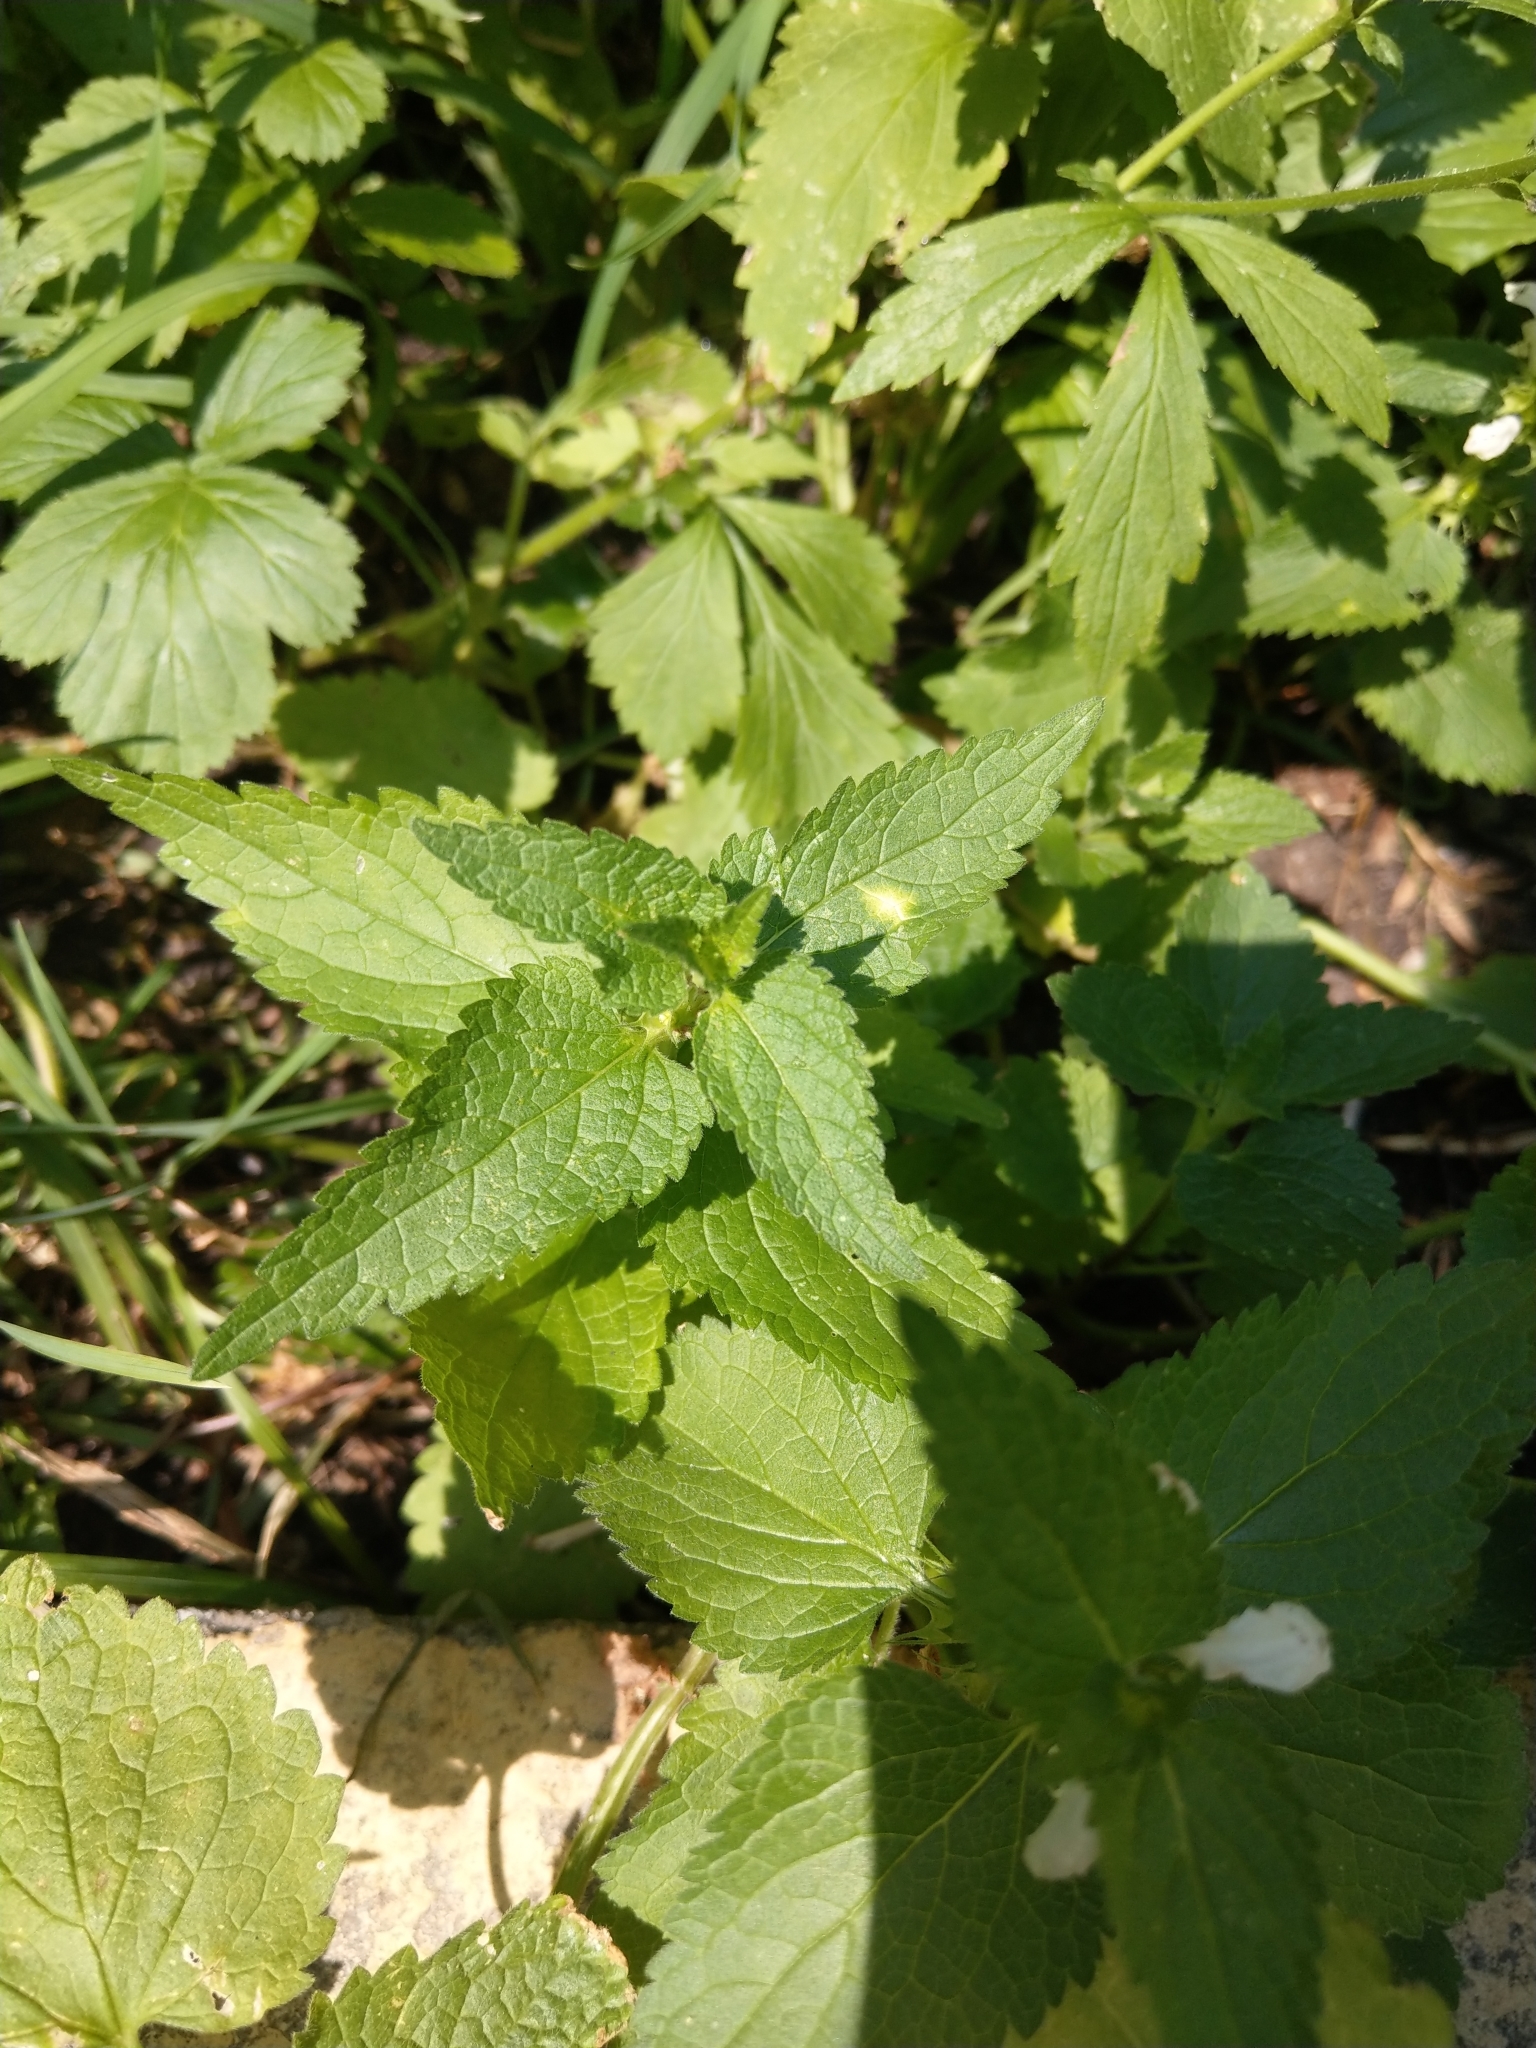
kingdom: Plantae
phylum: Tracheophyta
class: Magnoliopsida
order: Lamiales
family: Lamiaceae
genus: Lamium
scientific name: Lamium album
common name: White dead-nettle
